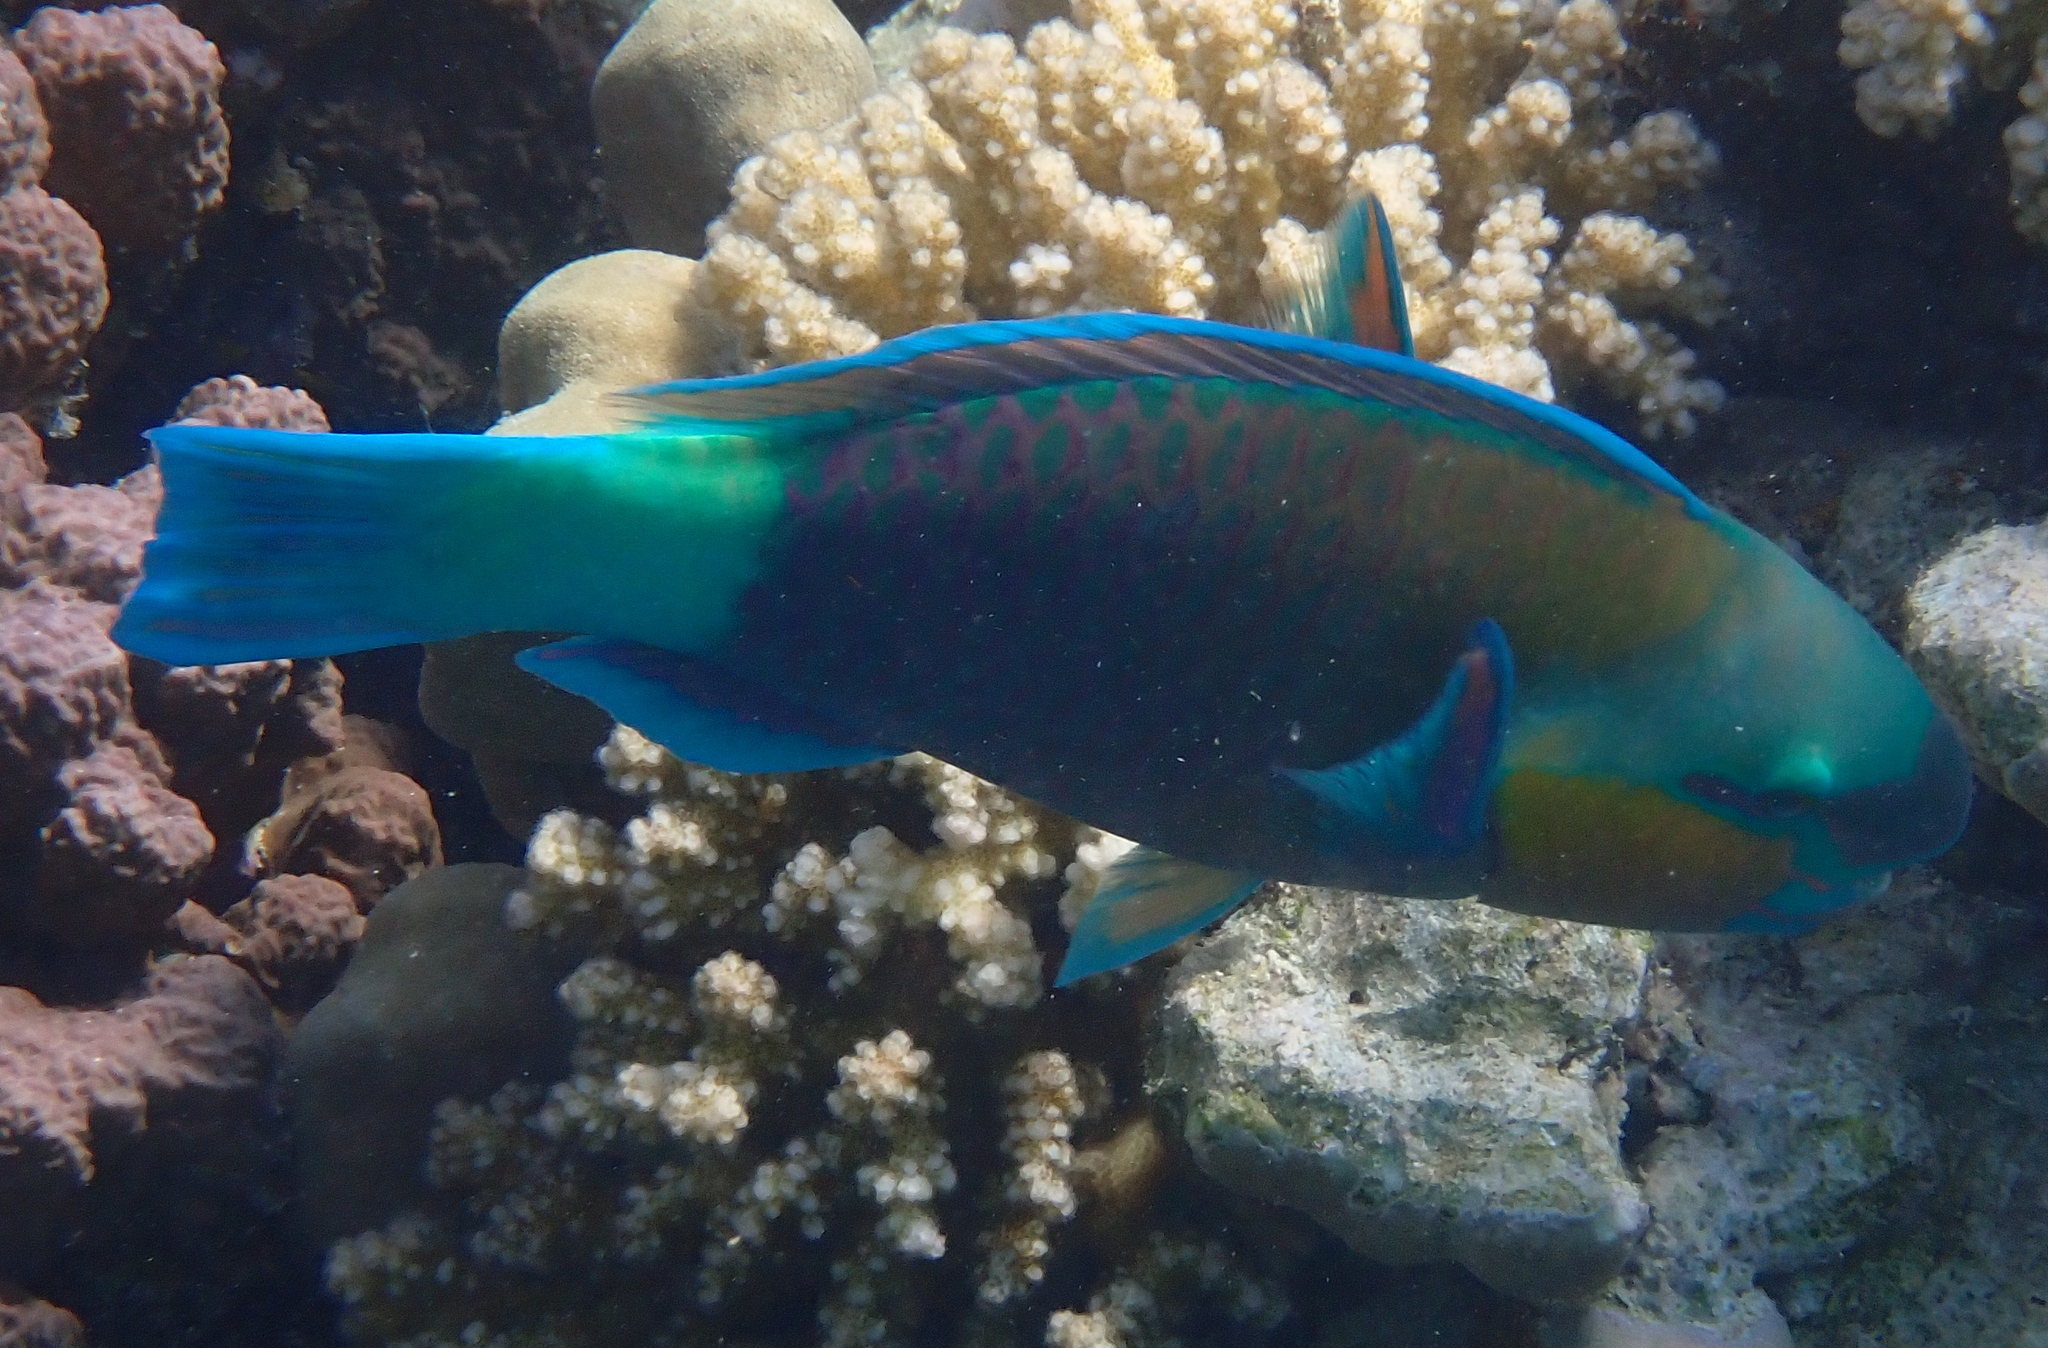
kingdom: Animalia
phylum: Chordata
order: Perciformes
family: Scaridae
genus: Chlorurus
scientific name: Chlorurus sordidus
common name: Bullethead parrotfish
